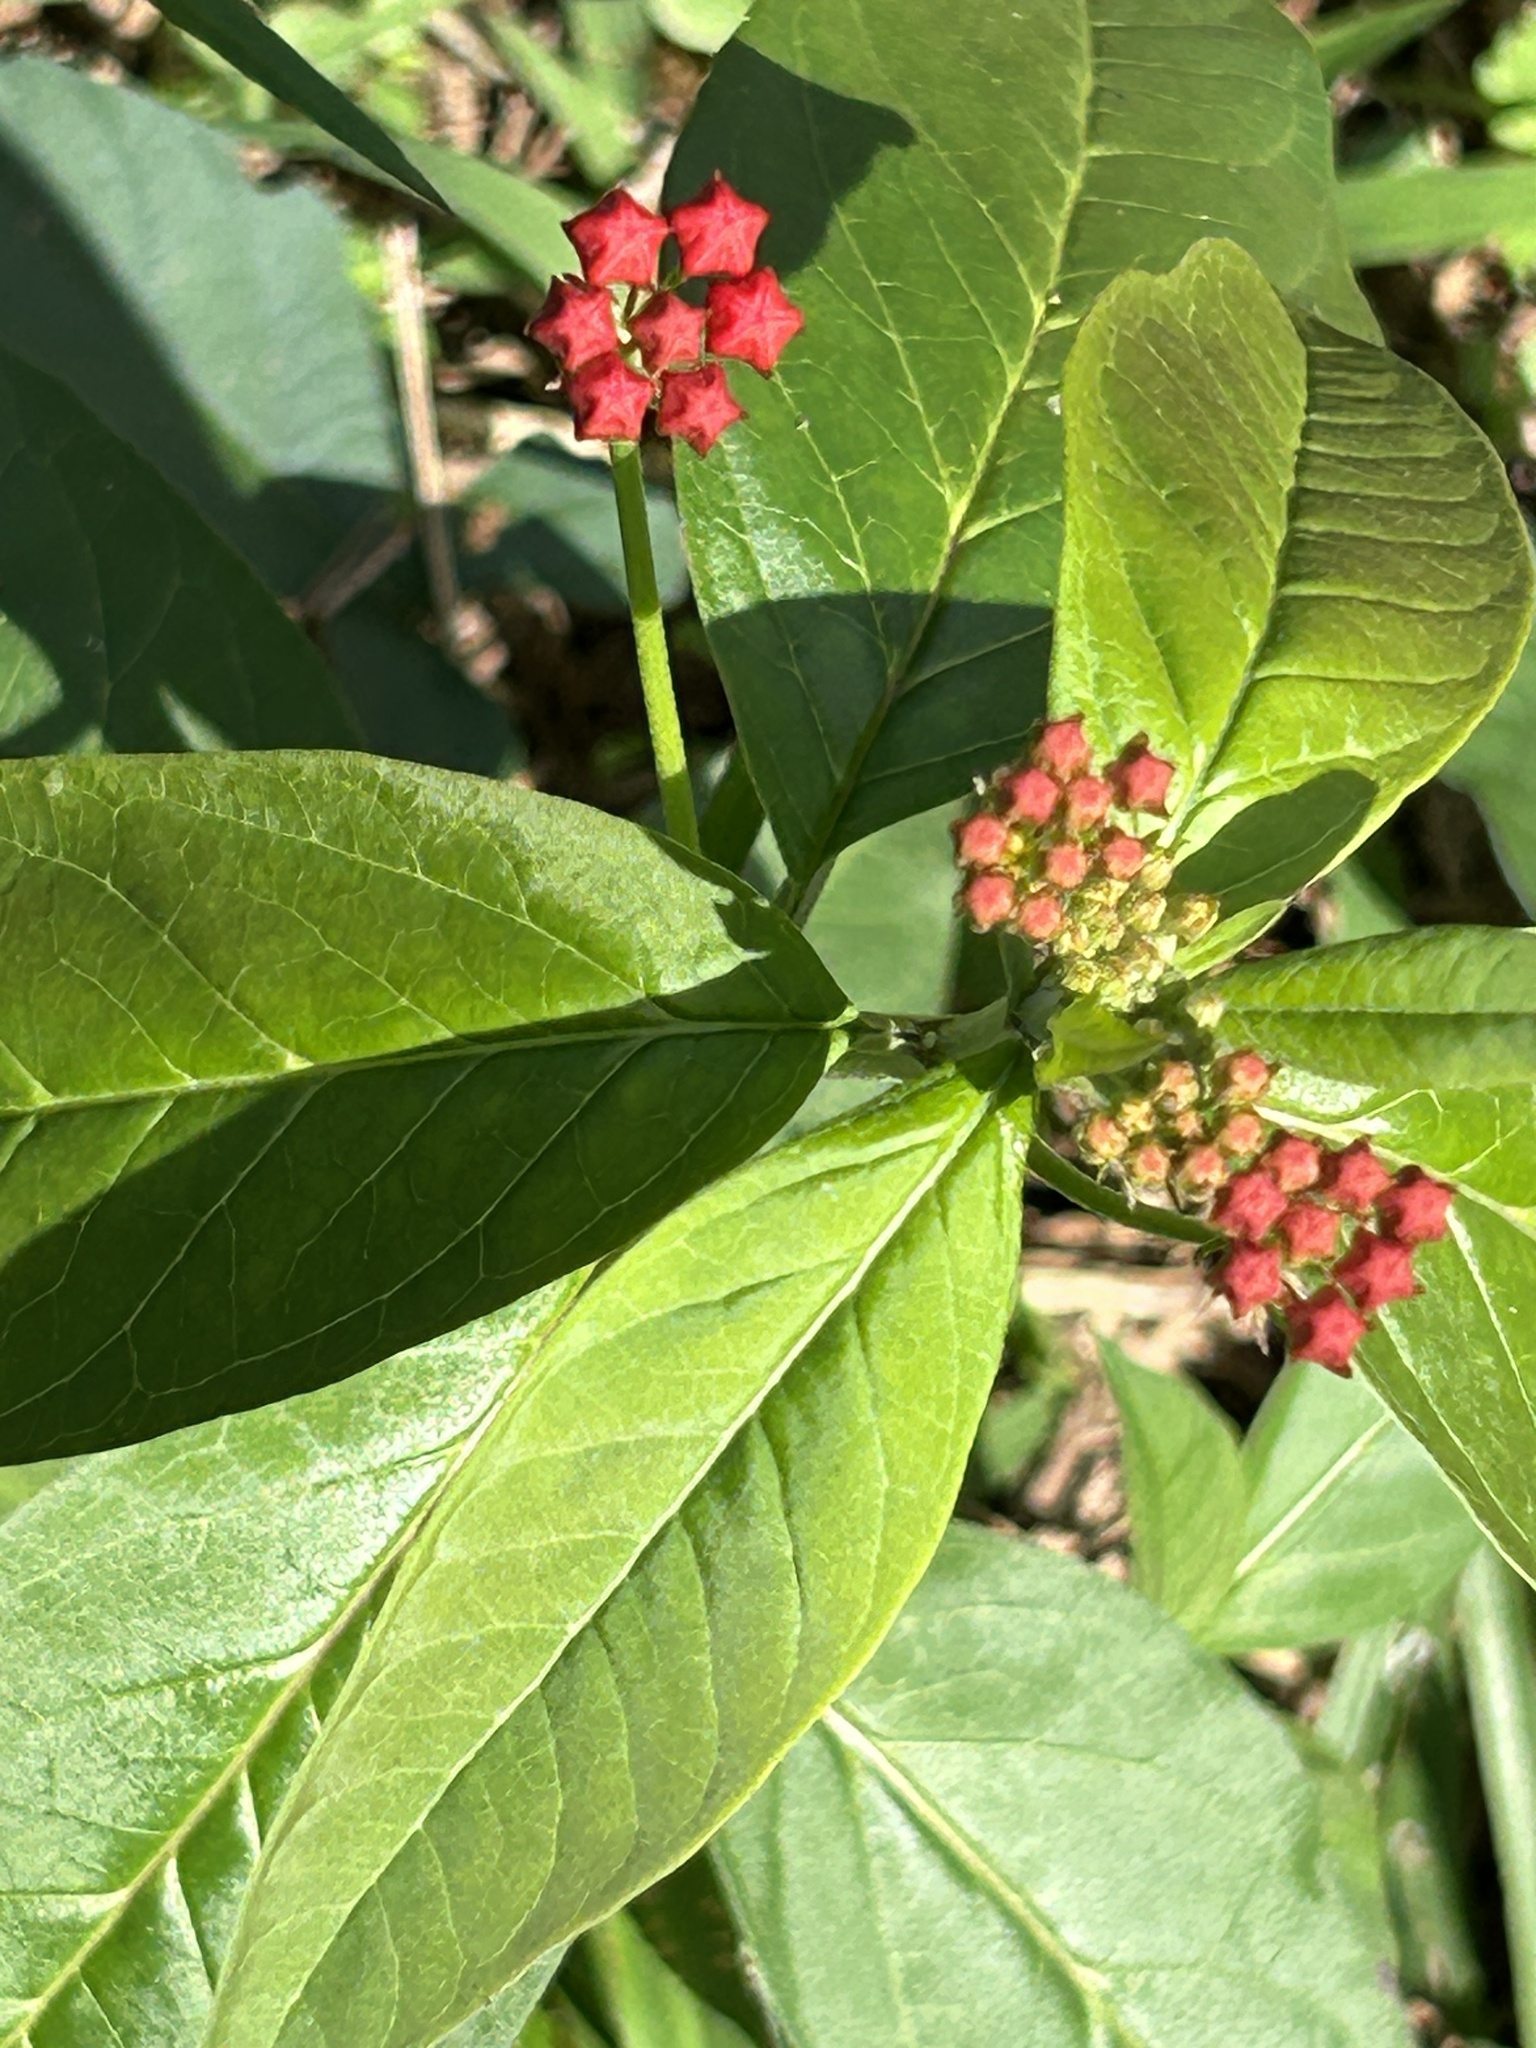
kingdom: Plantae
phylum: Tracheophyta
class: Magnoliopsida
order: Gentianales
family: Apocynaceae
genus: Asclepias
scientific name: Asclepias curassavica
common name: Bloodflower
